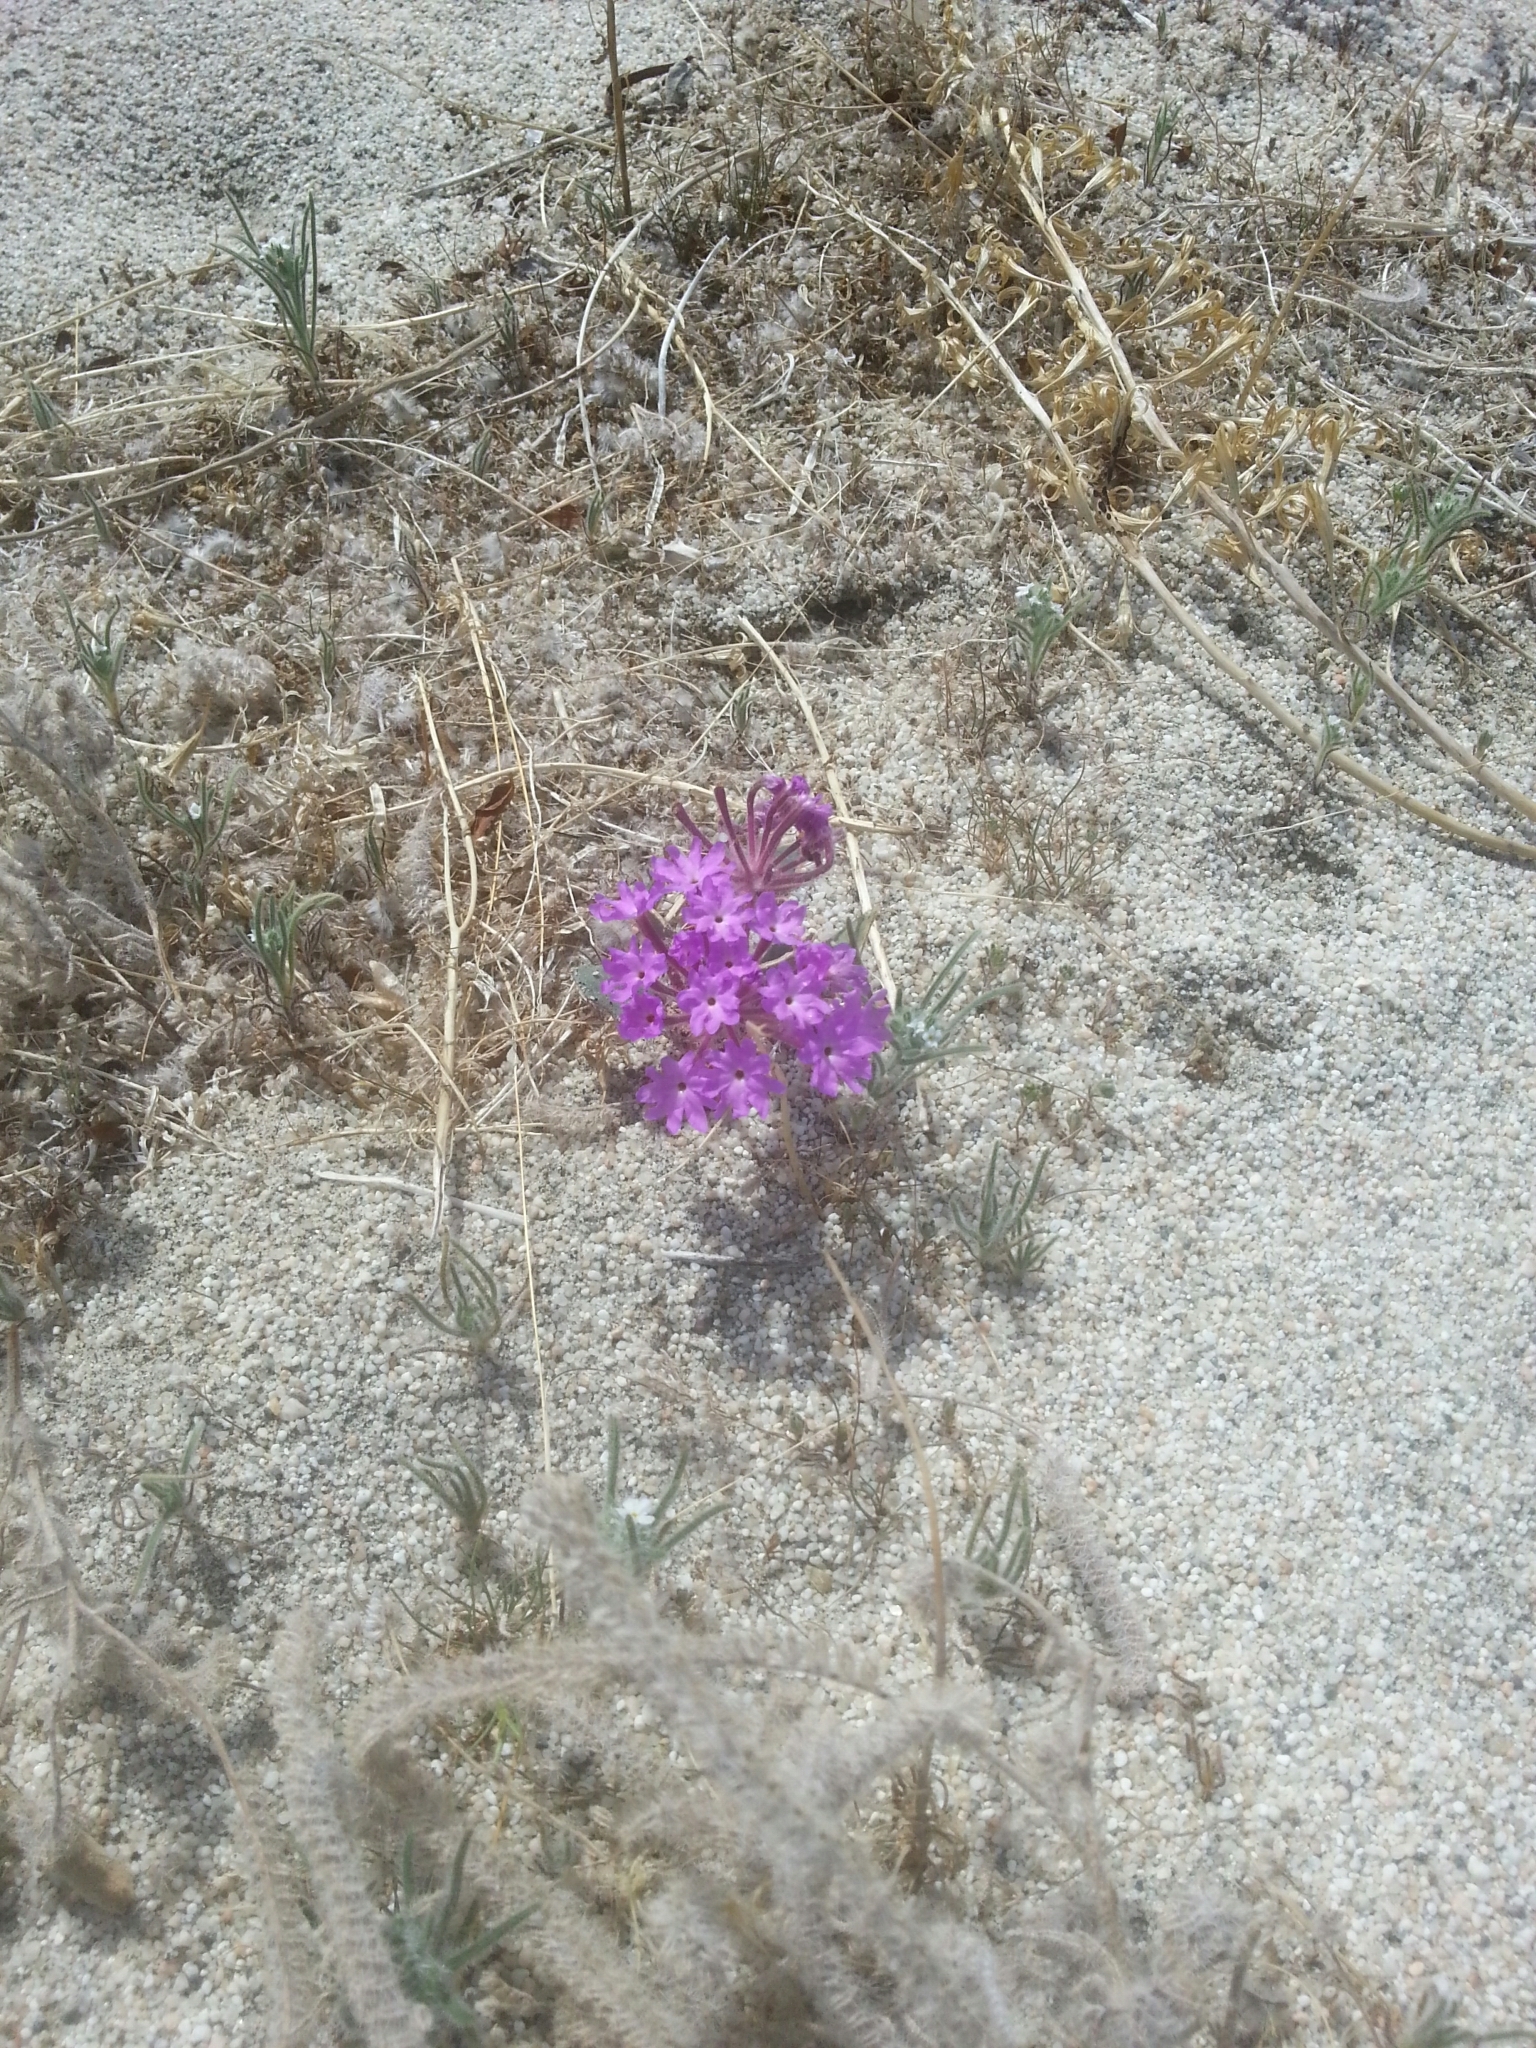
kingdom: Plantae
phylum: Tracheophyta
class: Magnoliopsida
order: Caryophyllales
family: Nyctaginaceae
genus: Abronia
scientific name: Abronia villosa
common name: Desert sand-verbena
